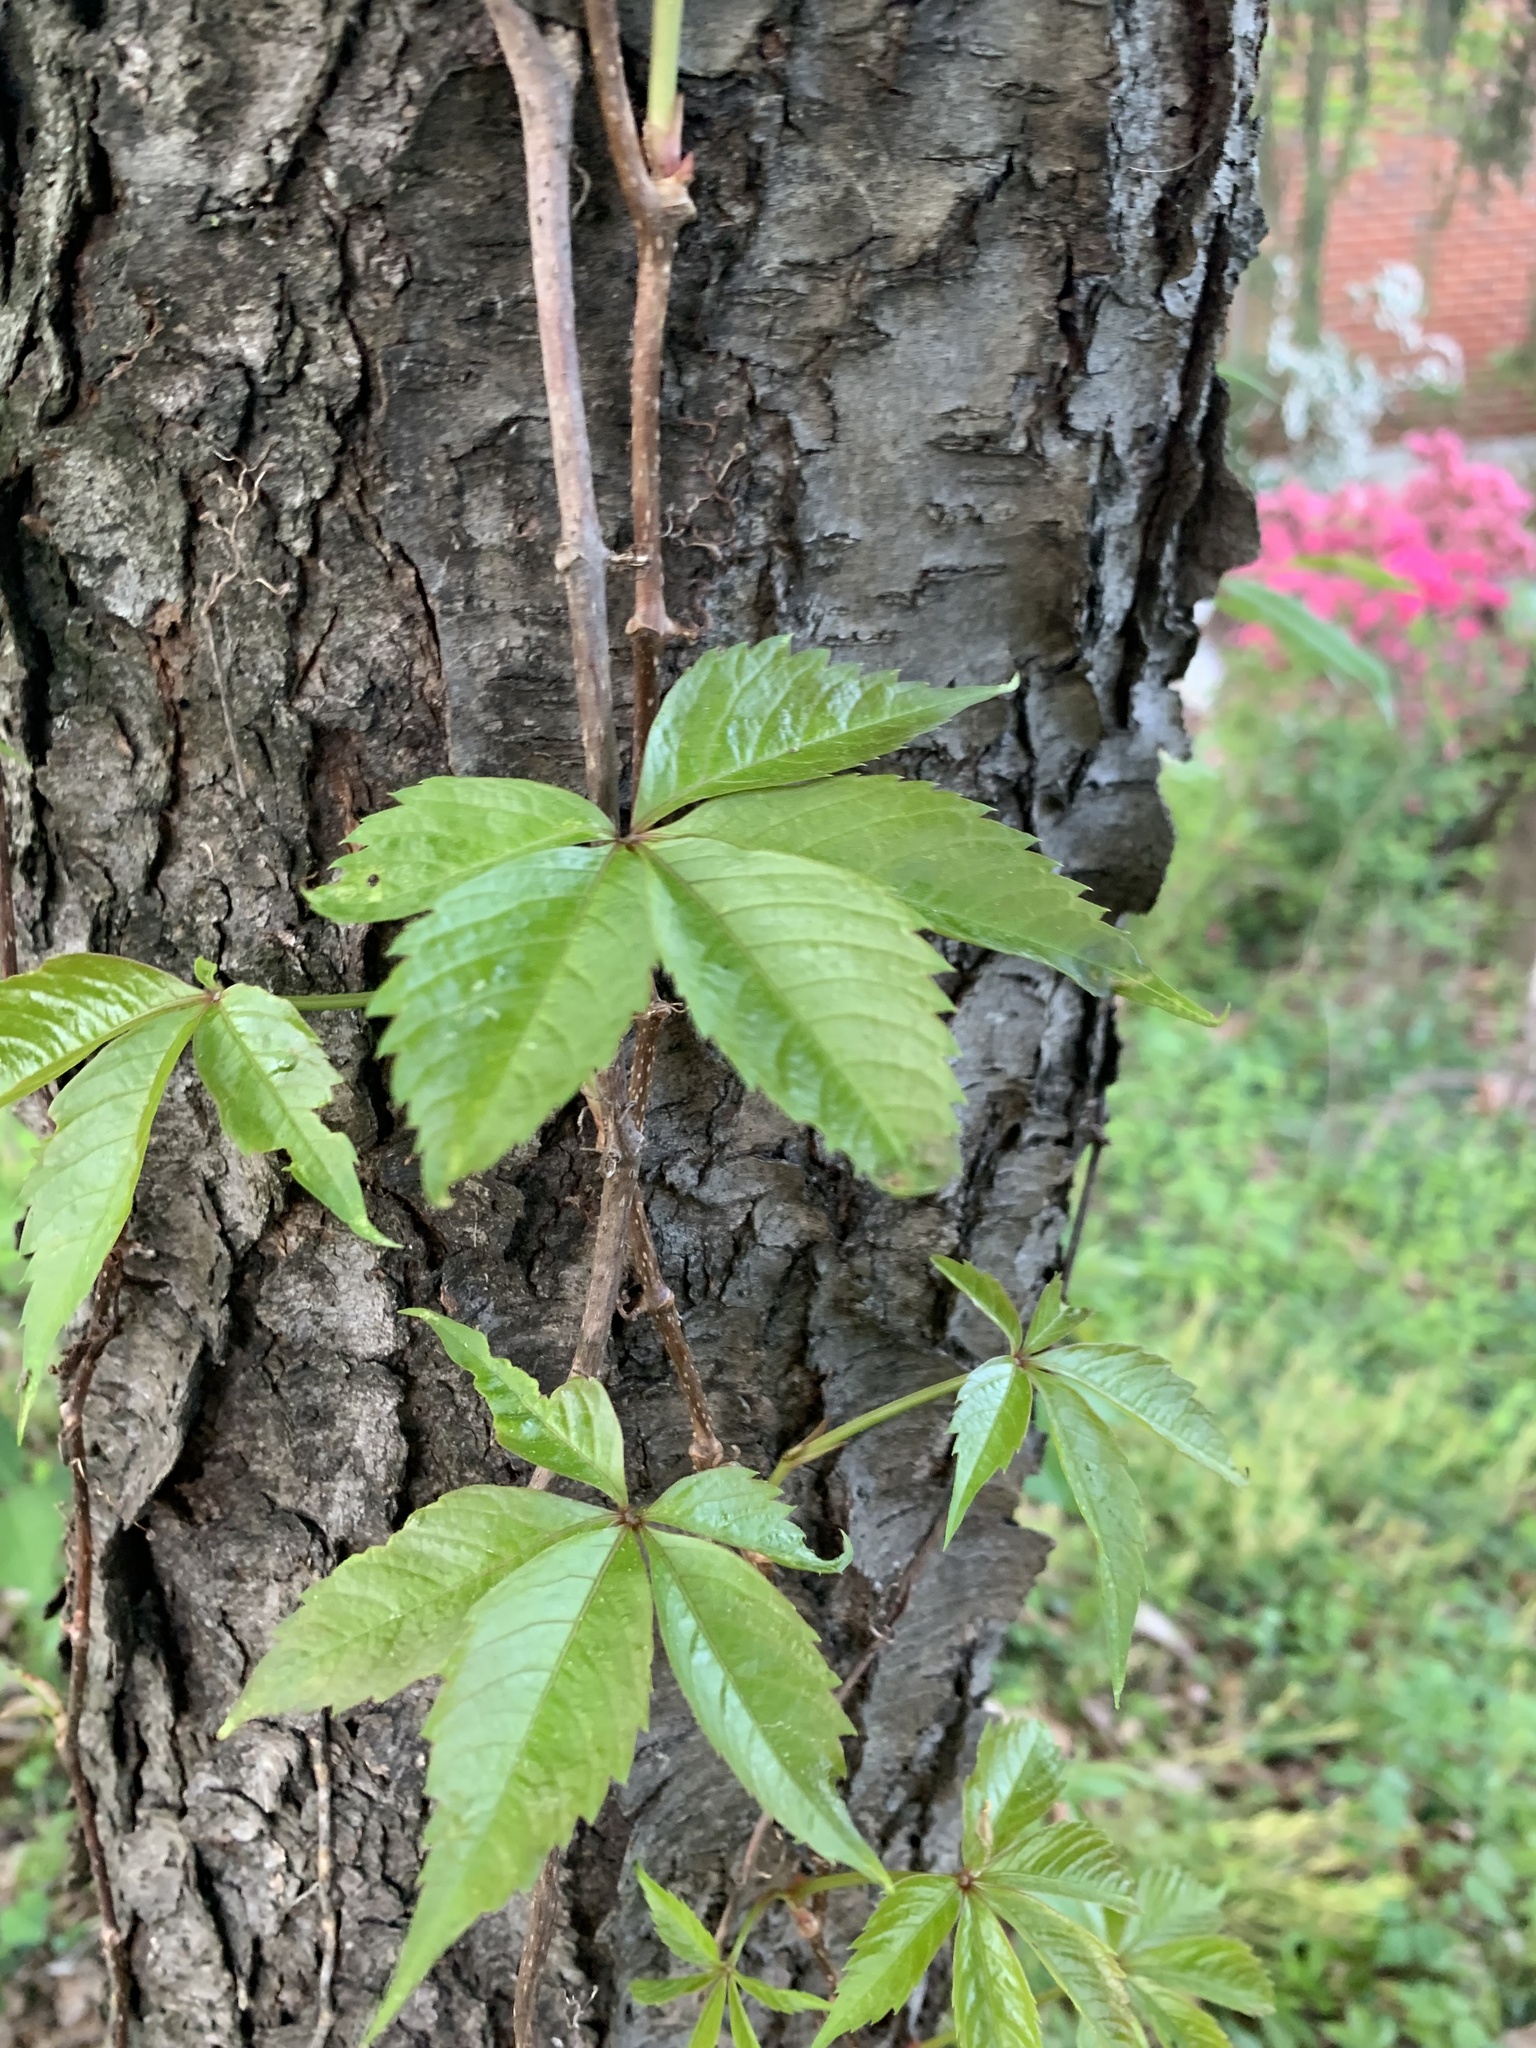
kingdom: Plantae
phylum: Tracheophyta
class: Magnoliopsida
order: Vitales
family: Vitaceae
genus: Parthenocissus
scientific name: Parthenocissus quinquefolia
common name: Virginia-creeper
